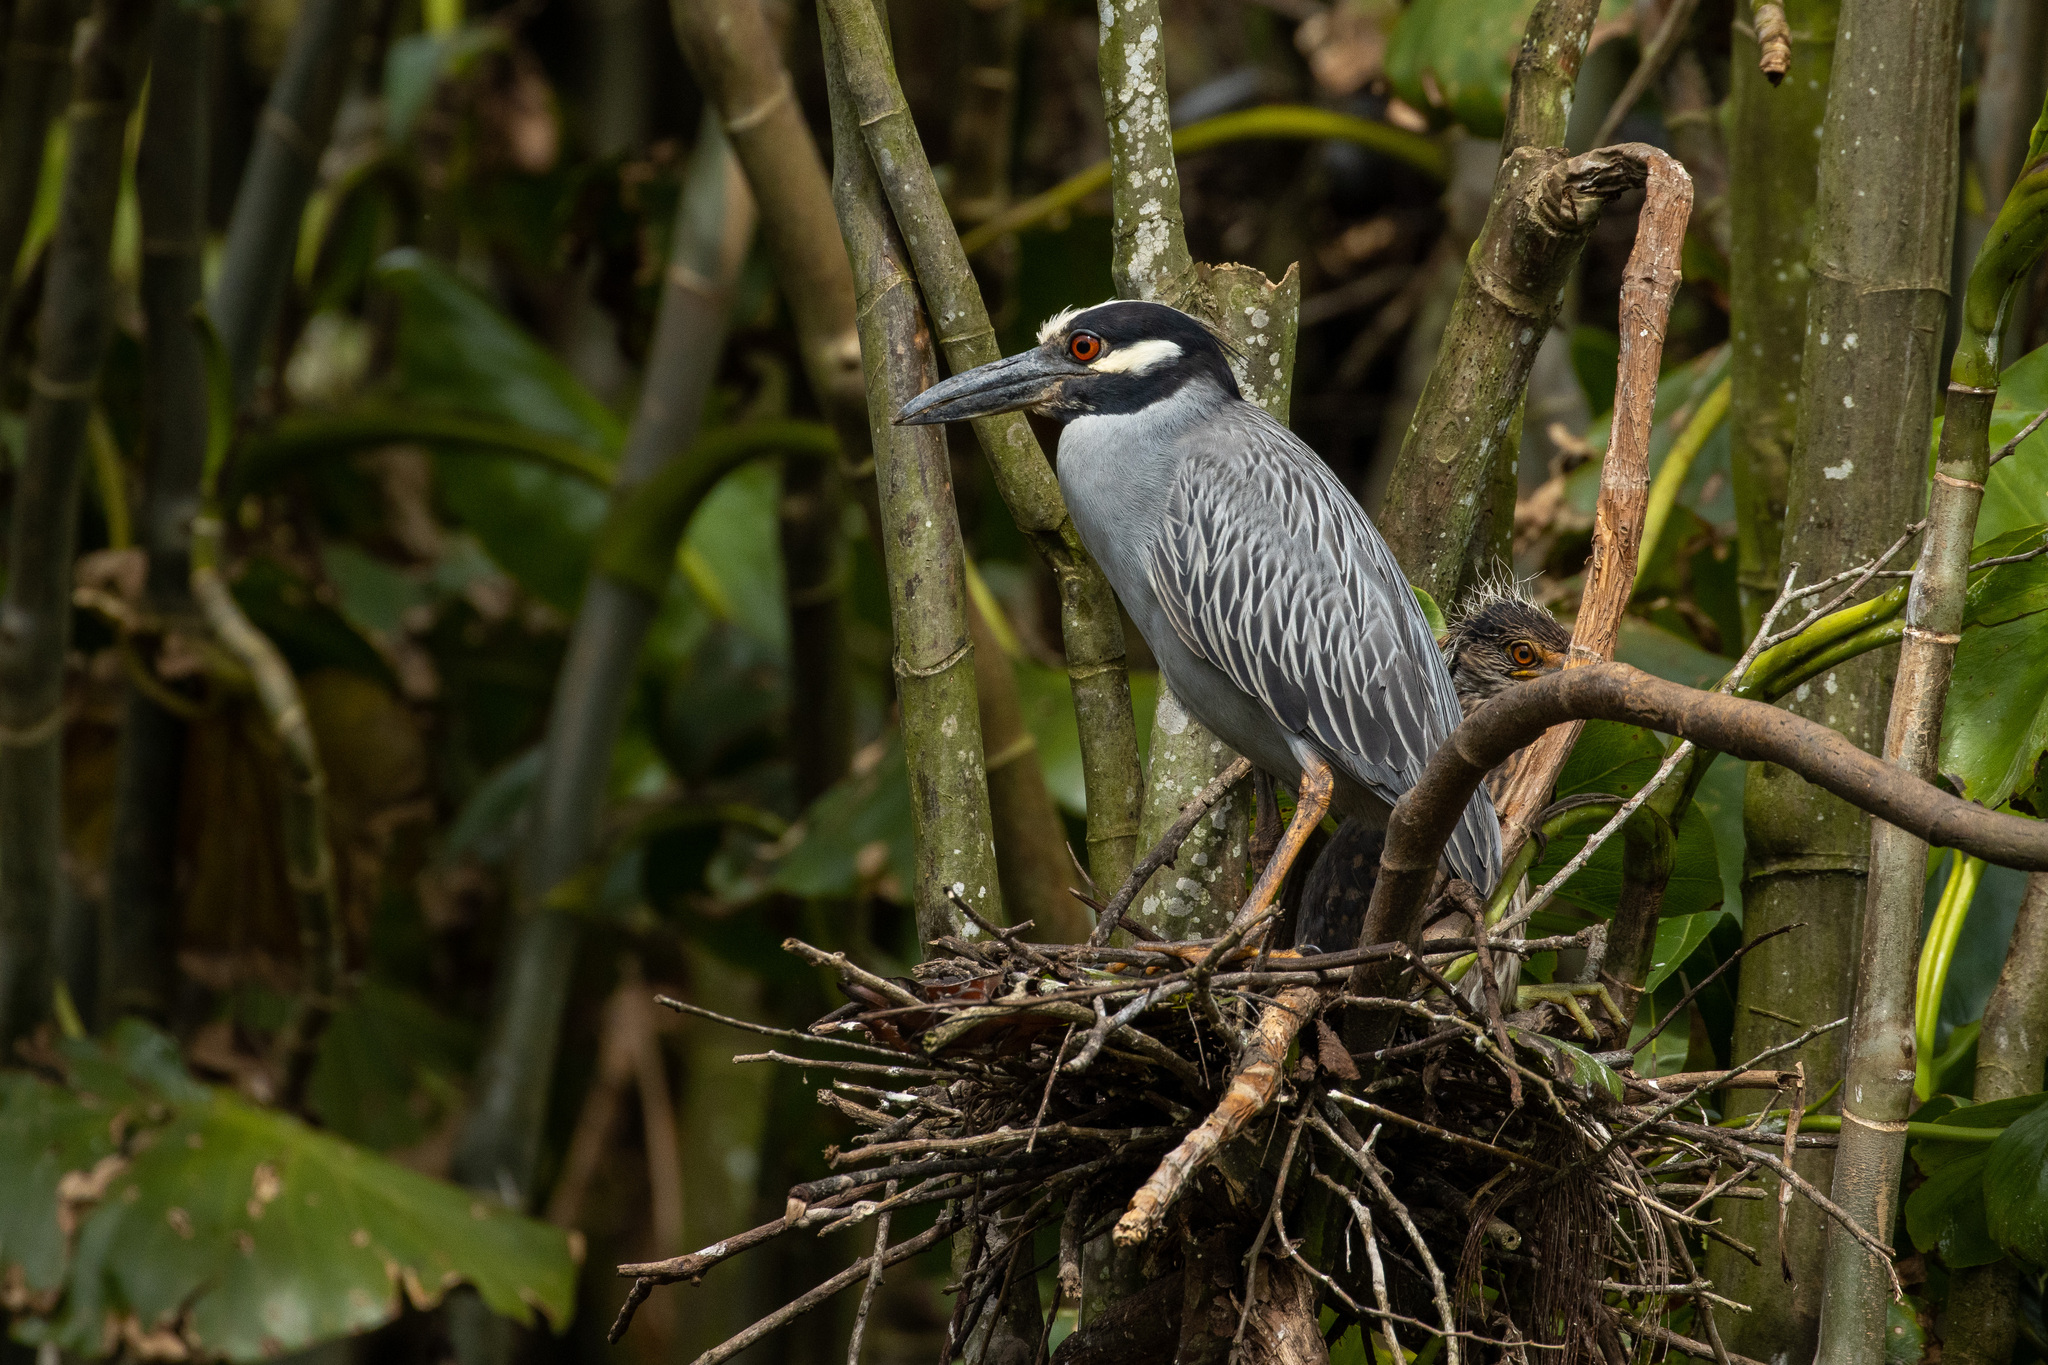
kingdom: Animalia
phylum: Chordata
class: Aves
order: Pelecaniformes
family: Ardeidae
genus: Nyctanassa
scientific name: Nyctanassa violacea
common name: Yellow-crowned night heron
